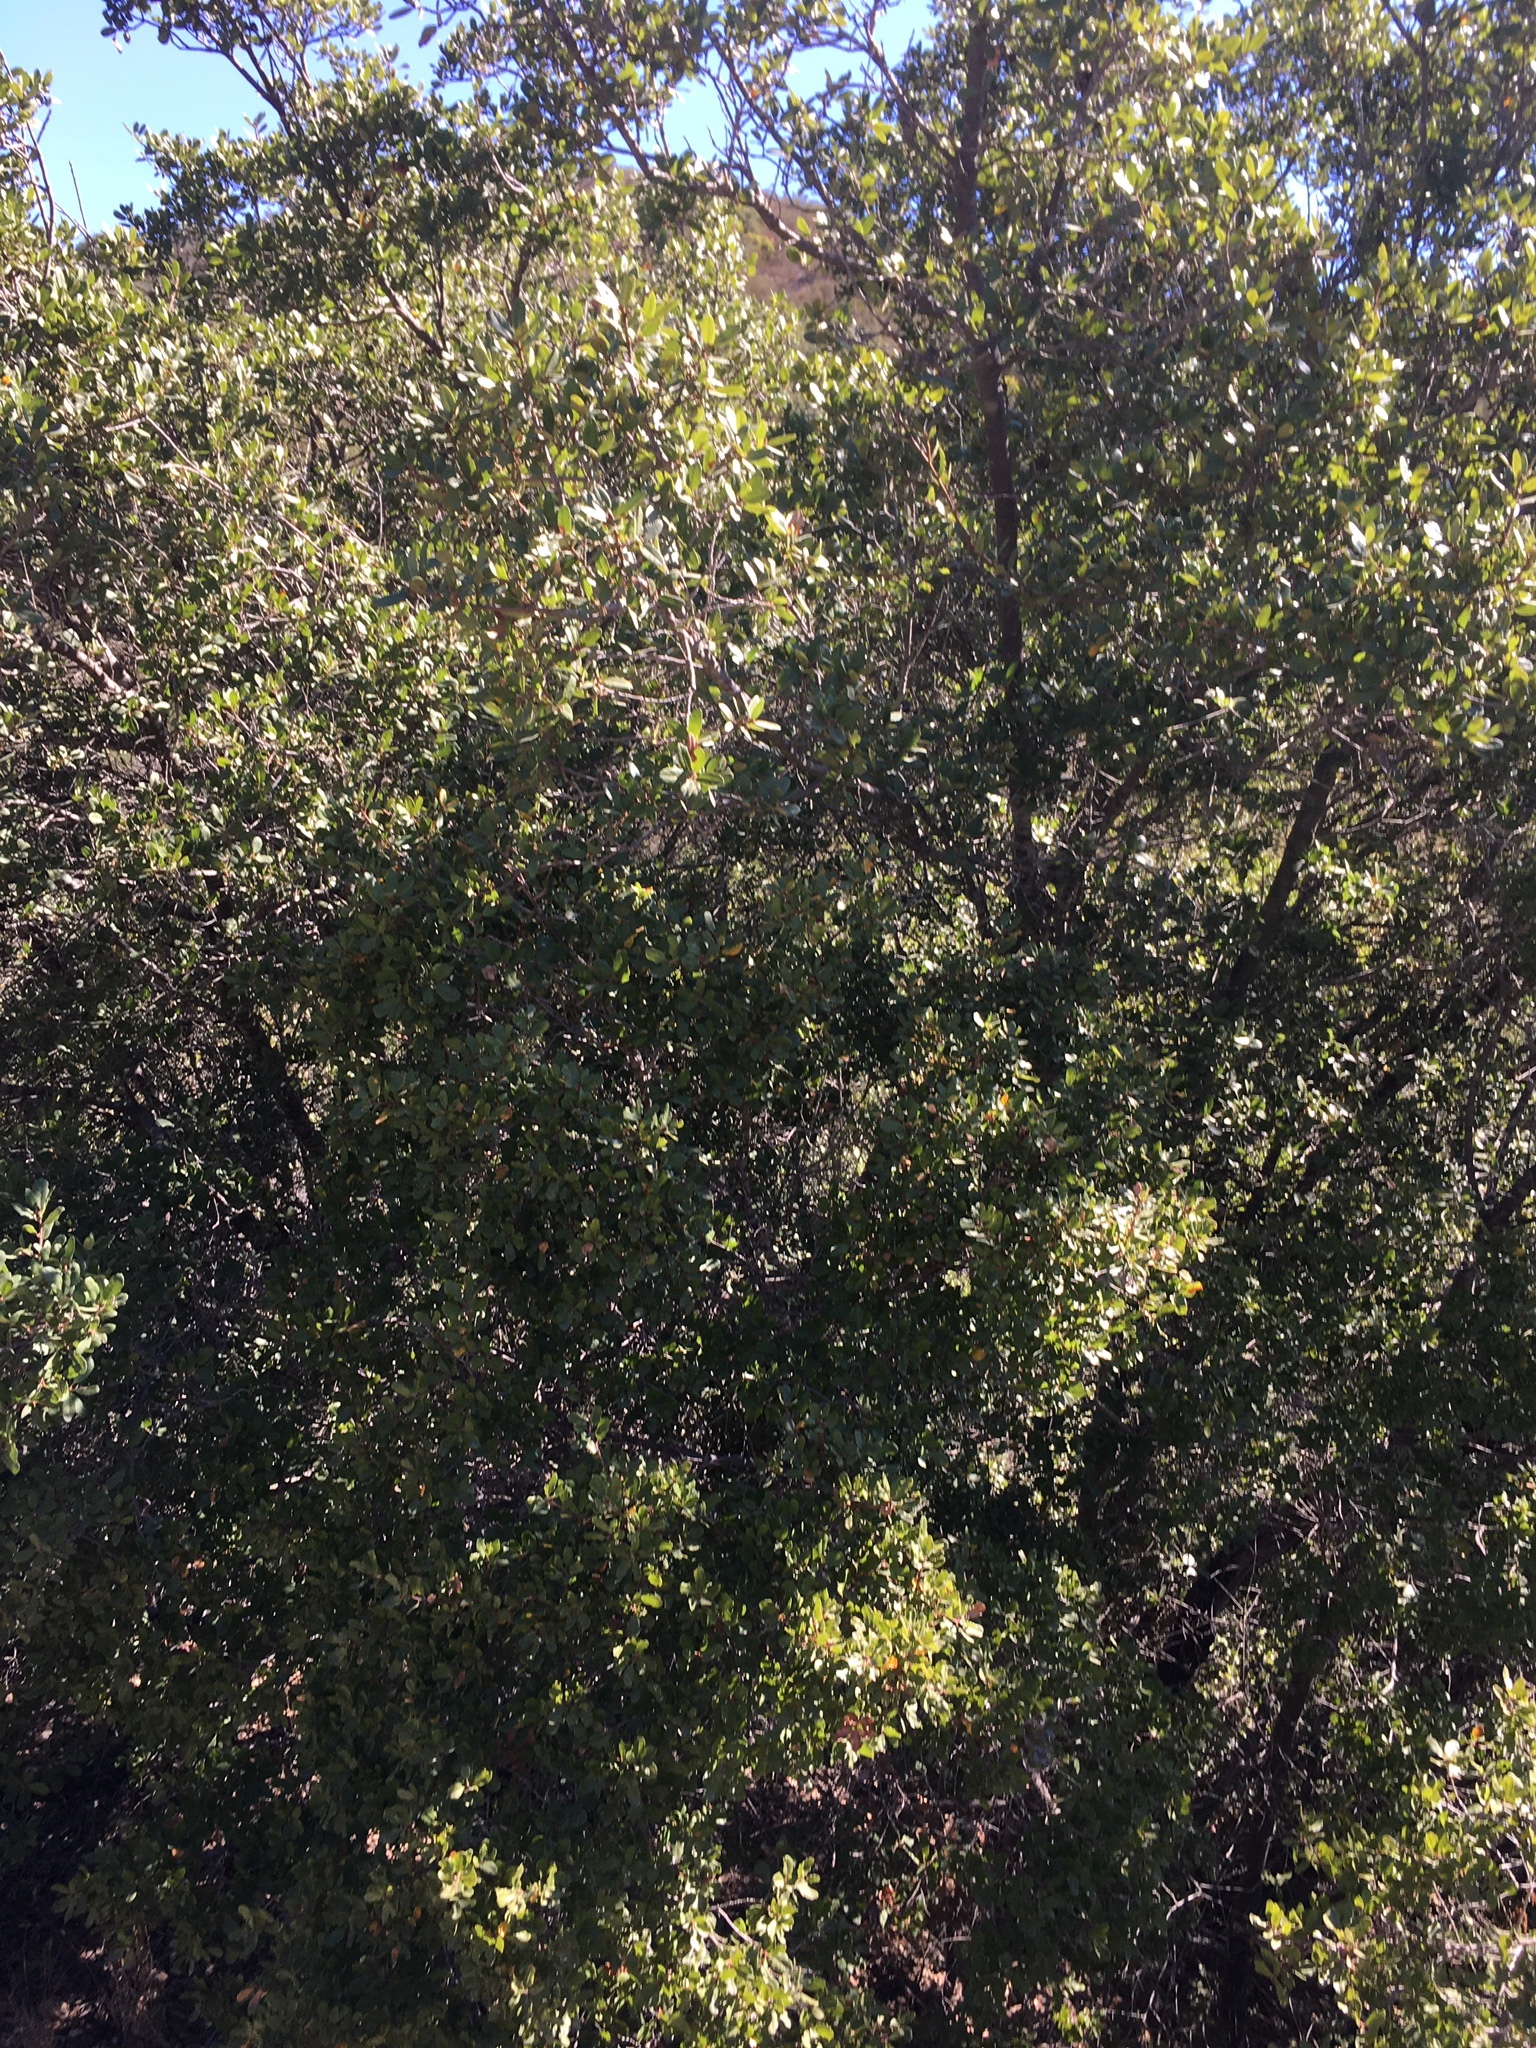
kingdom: Plantae
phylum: Tracheophyta
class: Magnoliopsida
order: Fagales
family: Fagaceae
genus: Quercus
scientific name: Quercus acutidens
